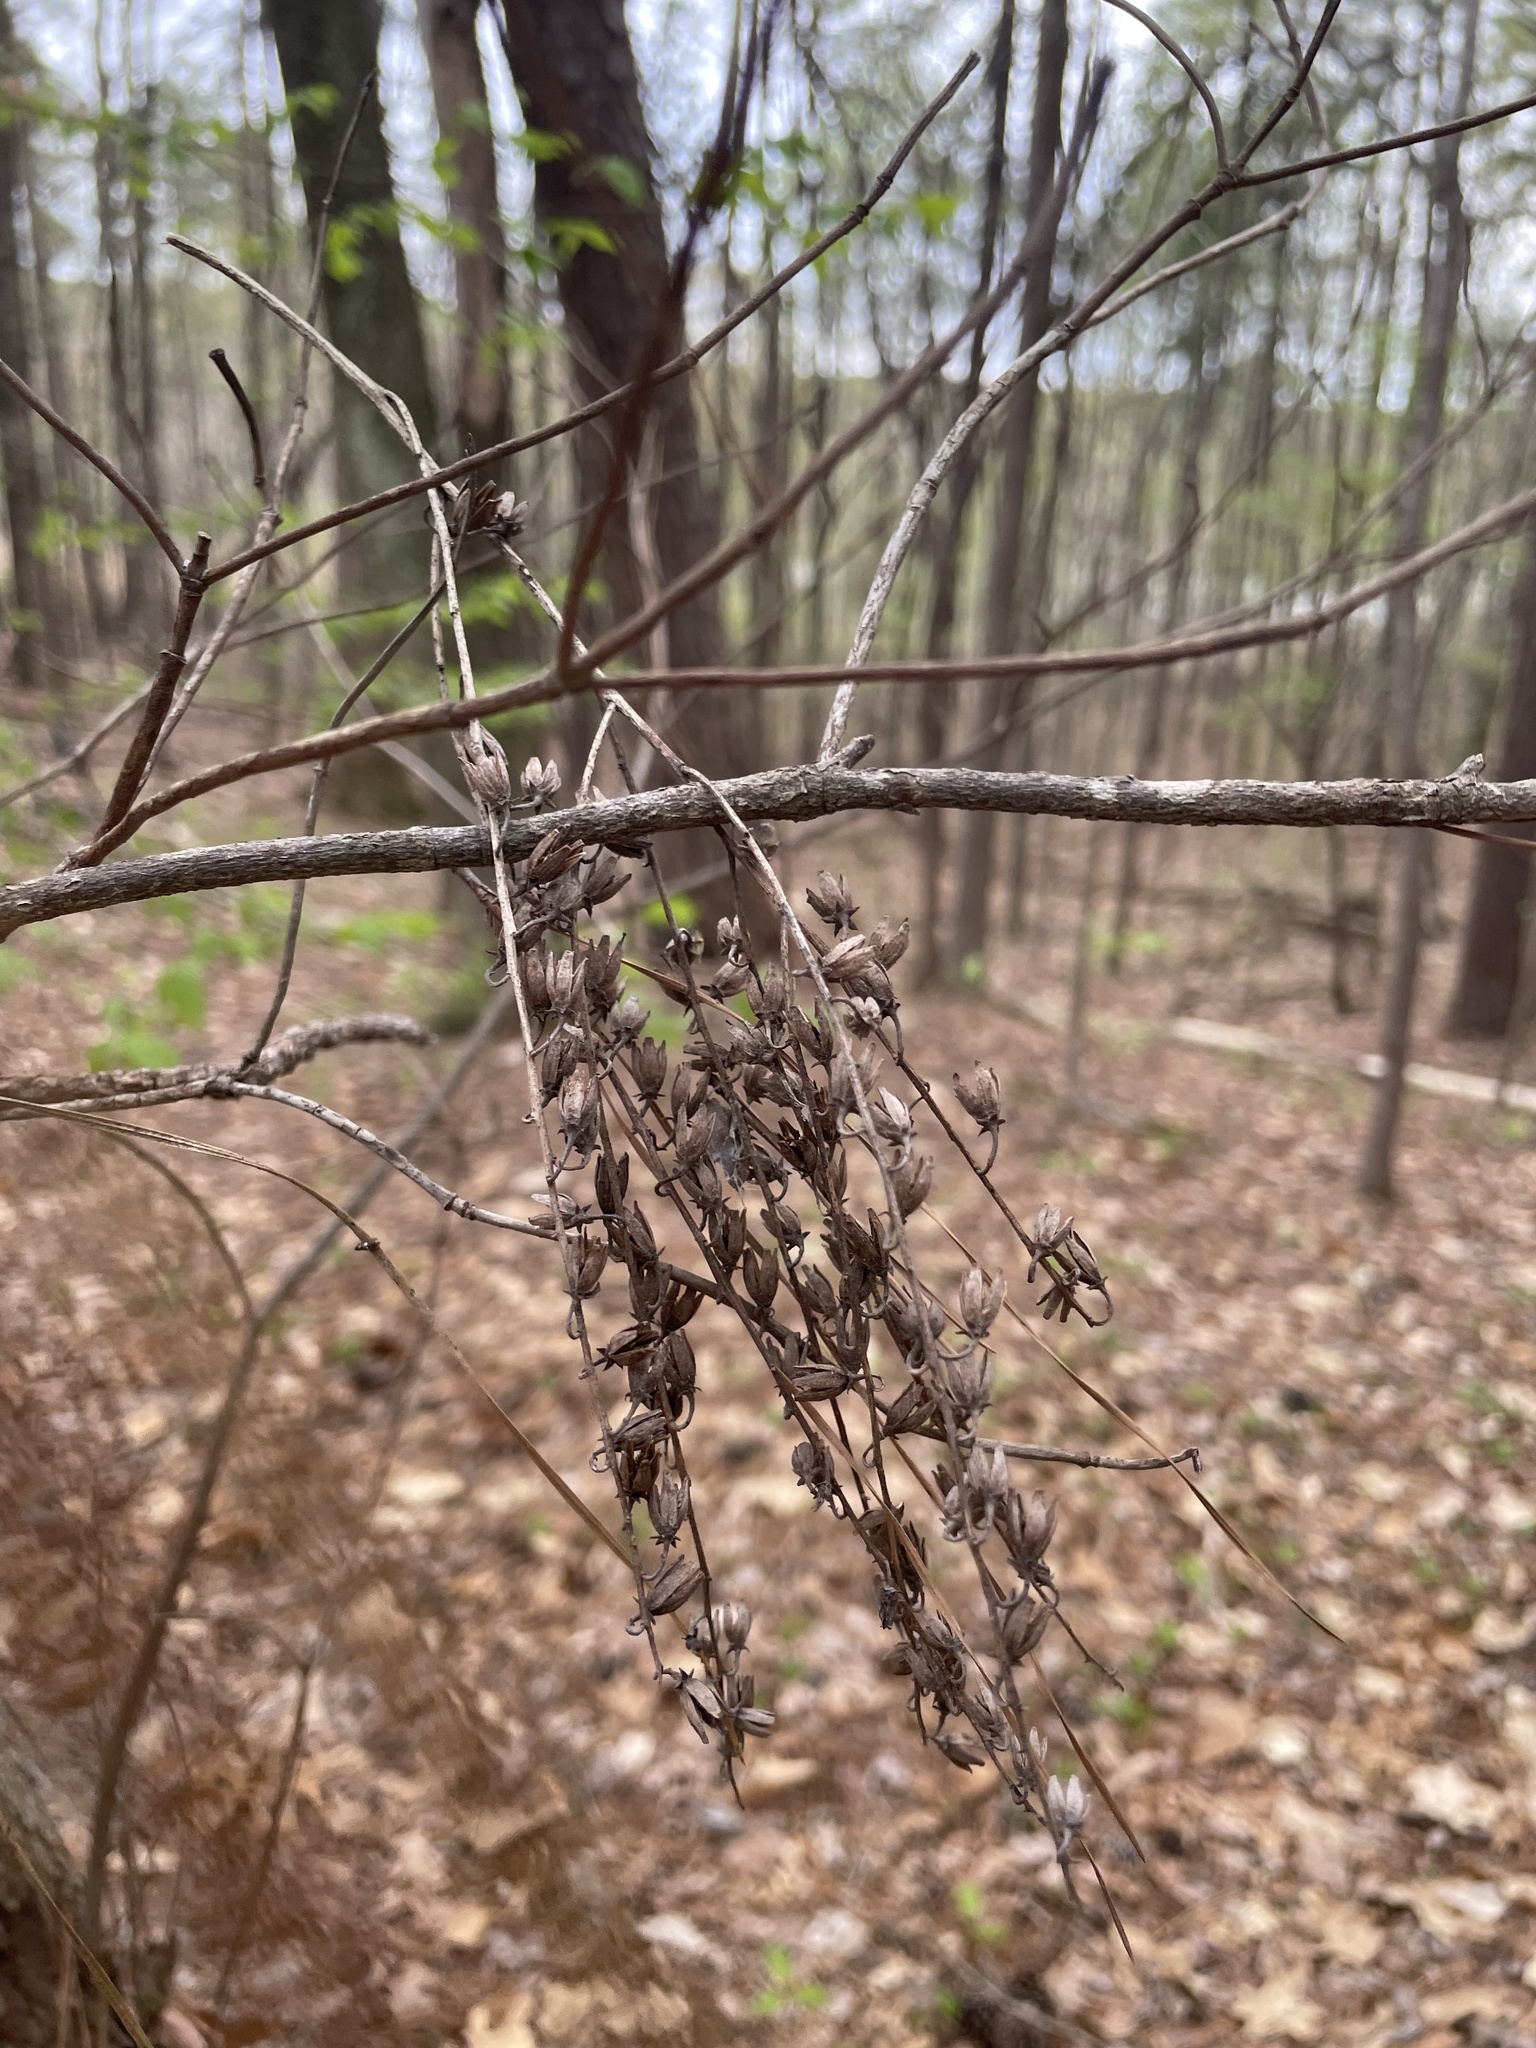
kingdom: Plantae
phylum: Tracheophyta
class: Magnoliopsida
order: Ericales
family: Ericaceae
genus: Oxydendrum
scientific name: Oxydendrum arboreum
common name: Sourwood
